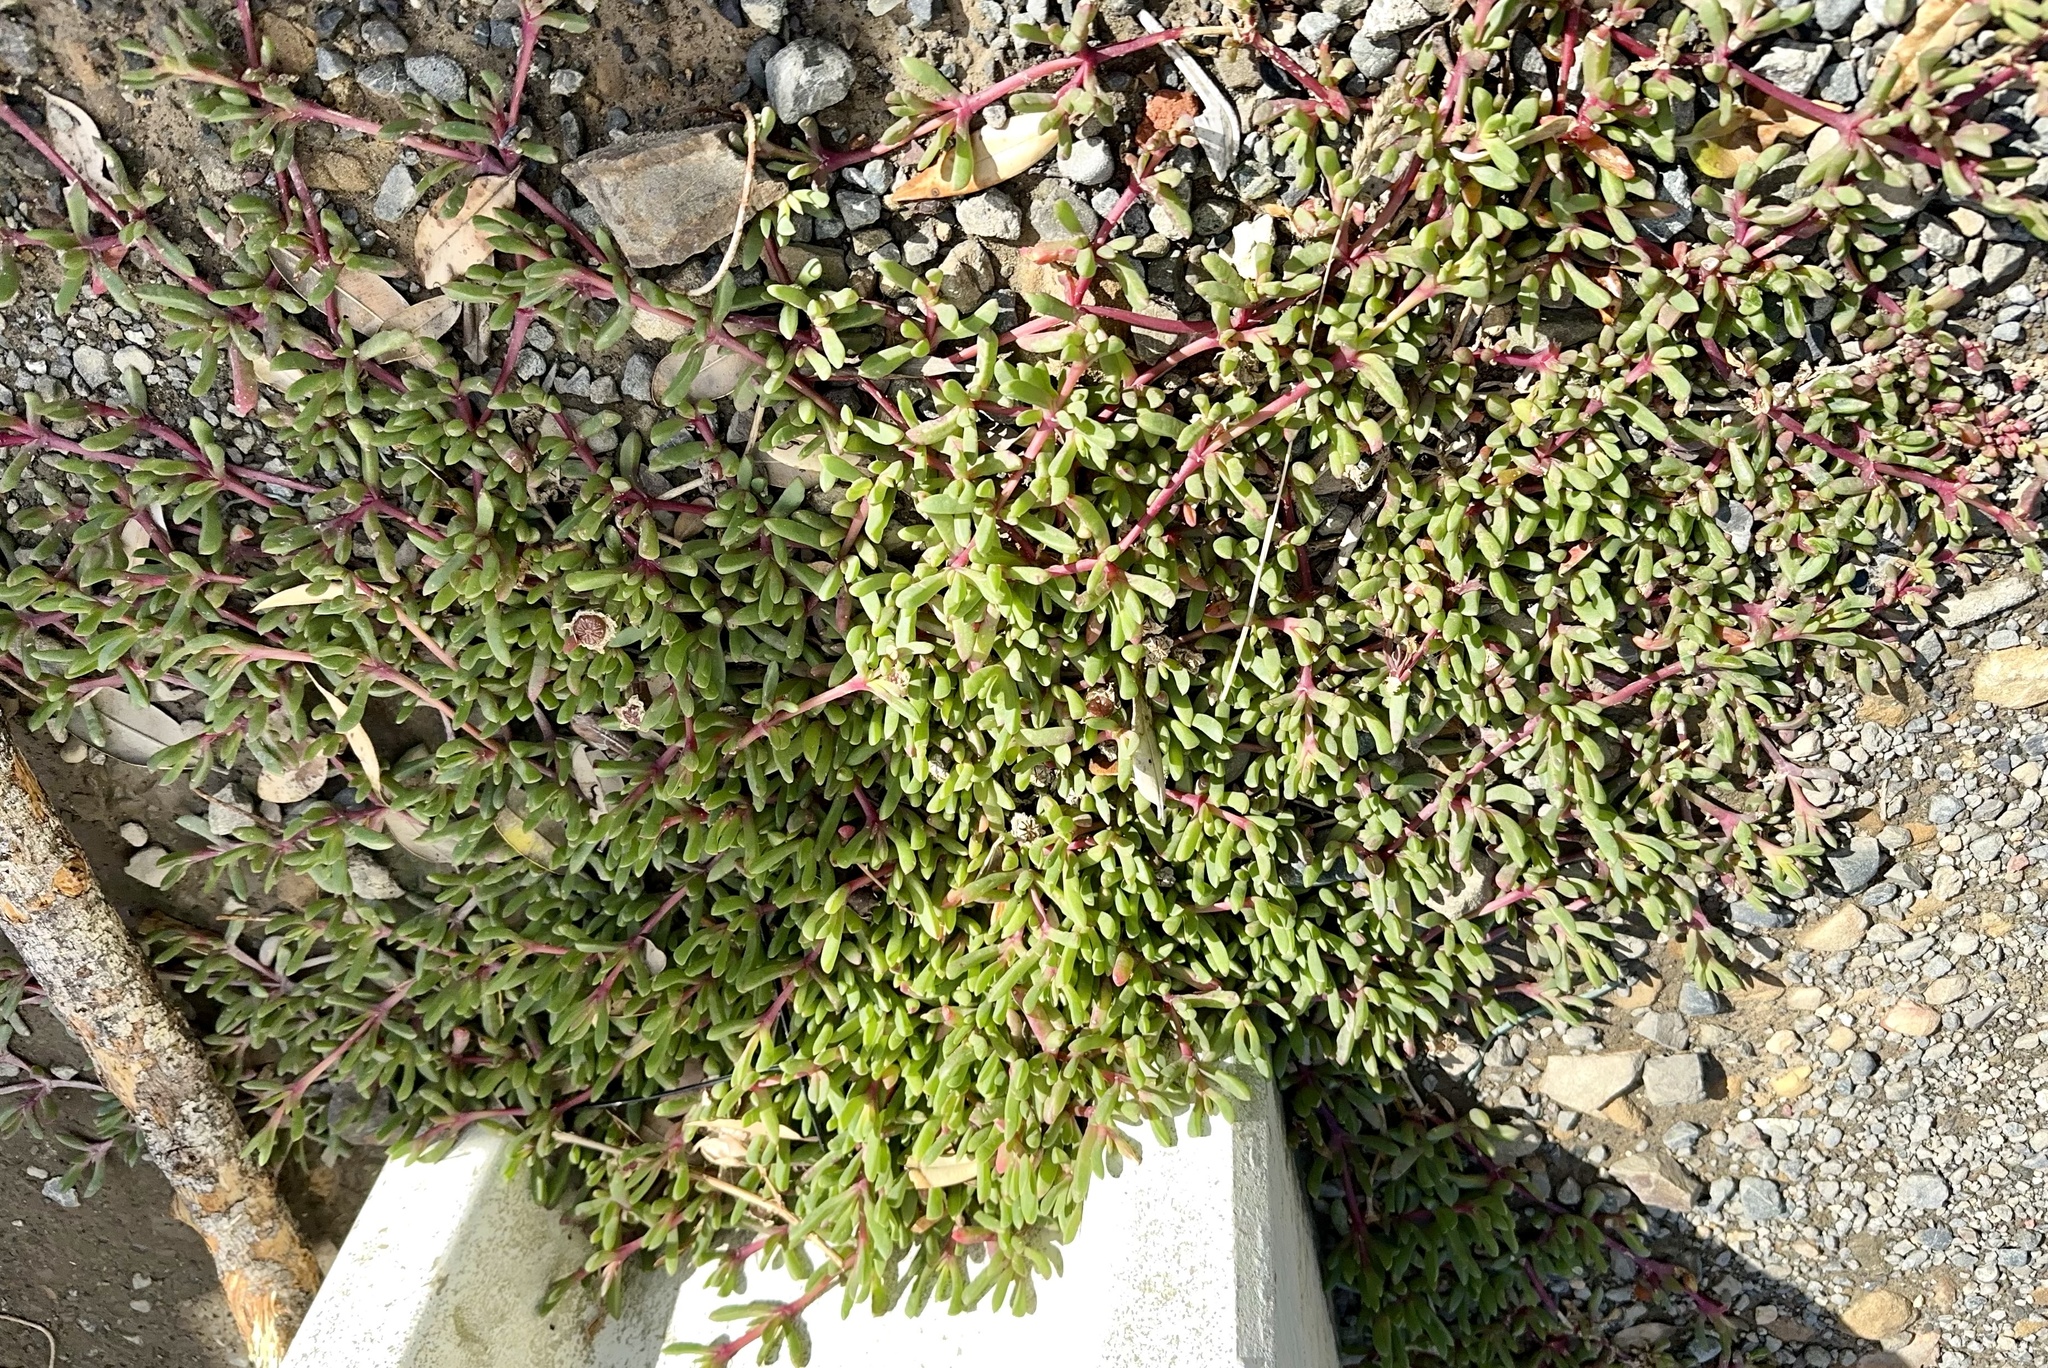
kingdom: Plantae
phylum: Tracheophyta
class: Magnoliopsida
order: Caryophyllales
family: Aizoaceae
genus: Disphyma
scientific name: Disphyma australe
